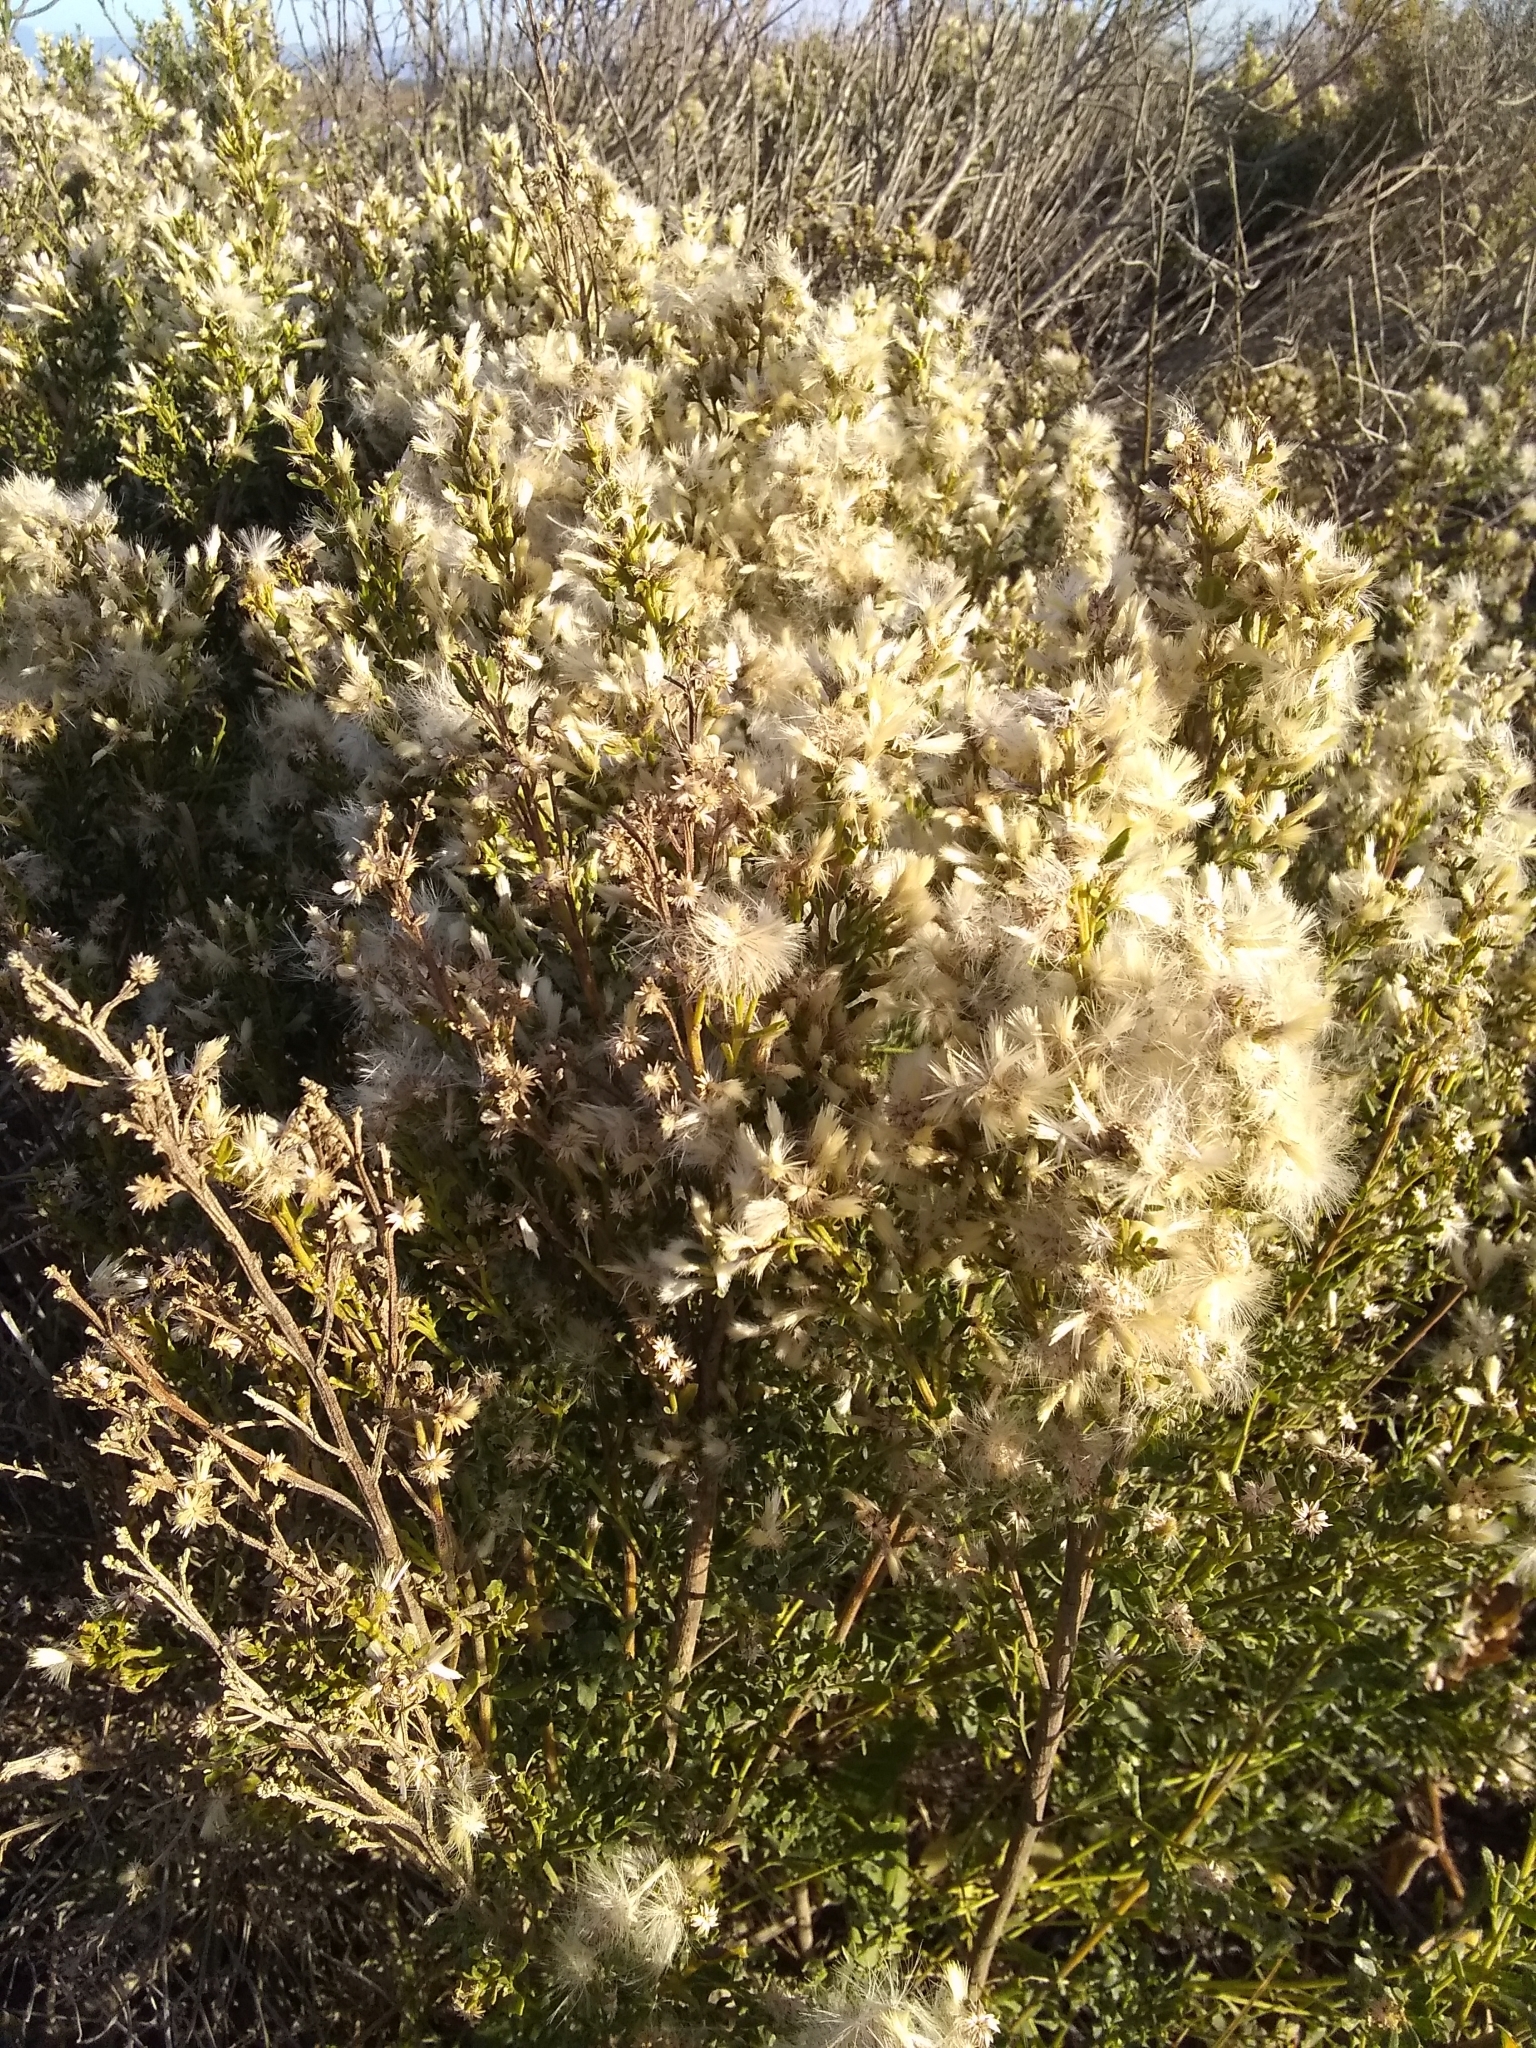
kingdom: Plantae
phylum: Tracheophyta
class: Magnoliopsida
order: Asterales
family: Asteraceae
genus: Baccharis
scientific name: Baccharis pilularis
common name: Coyotebrush
